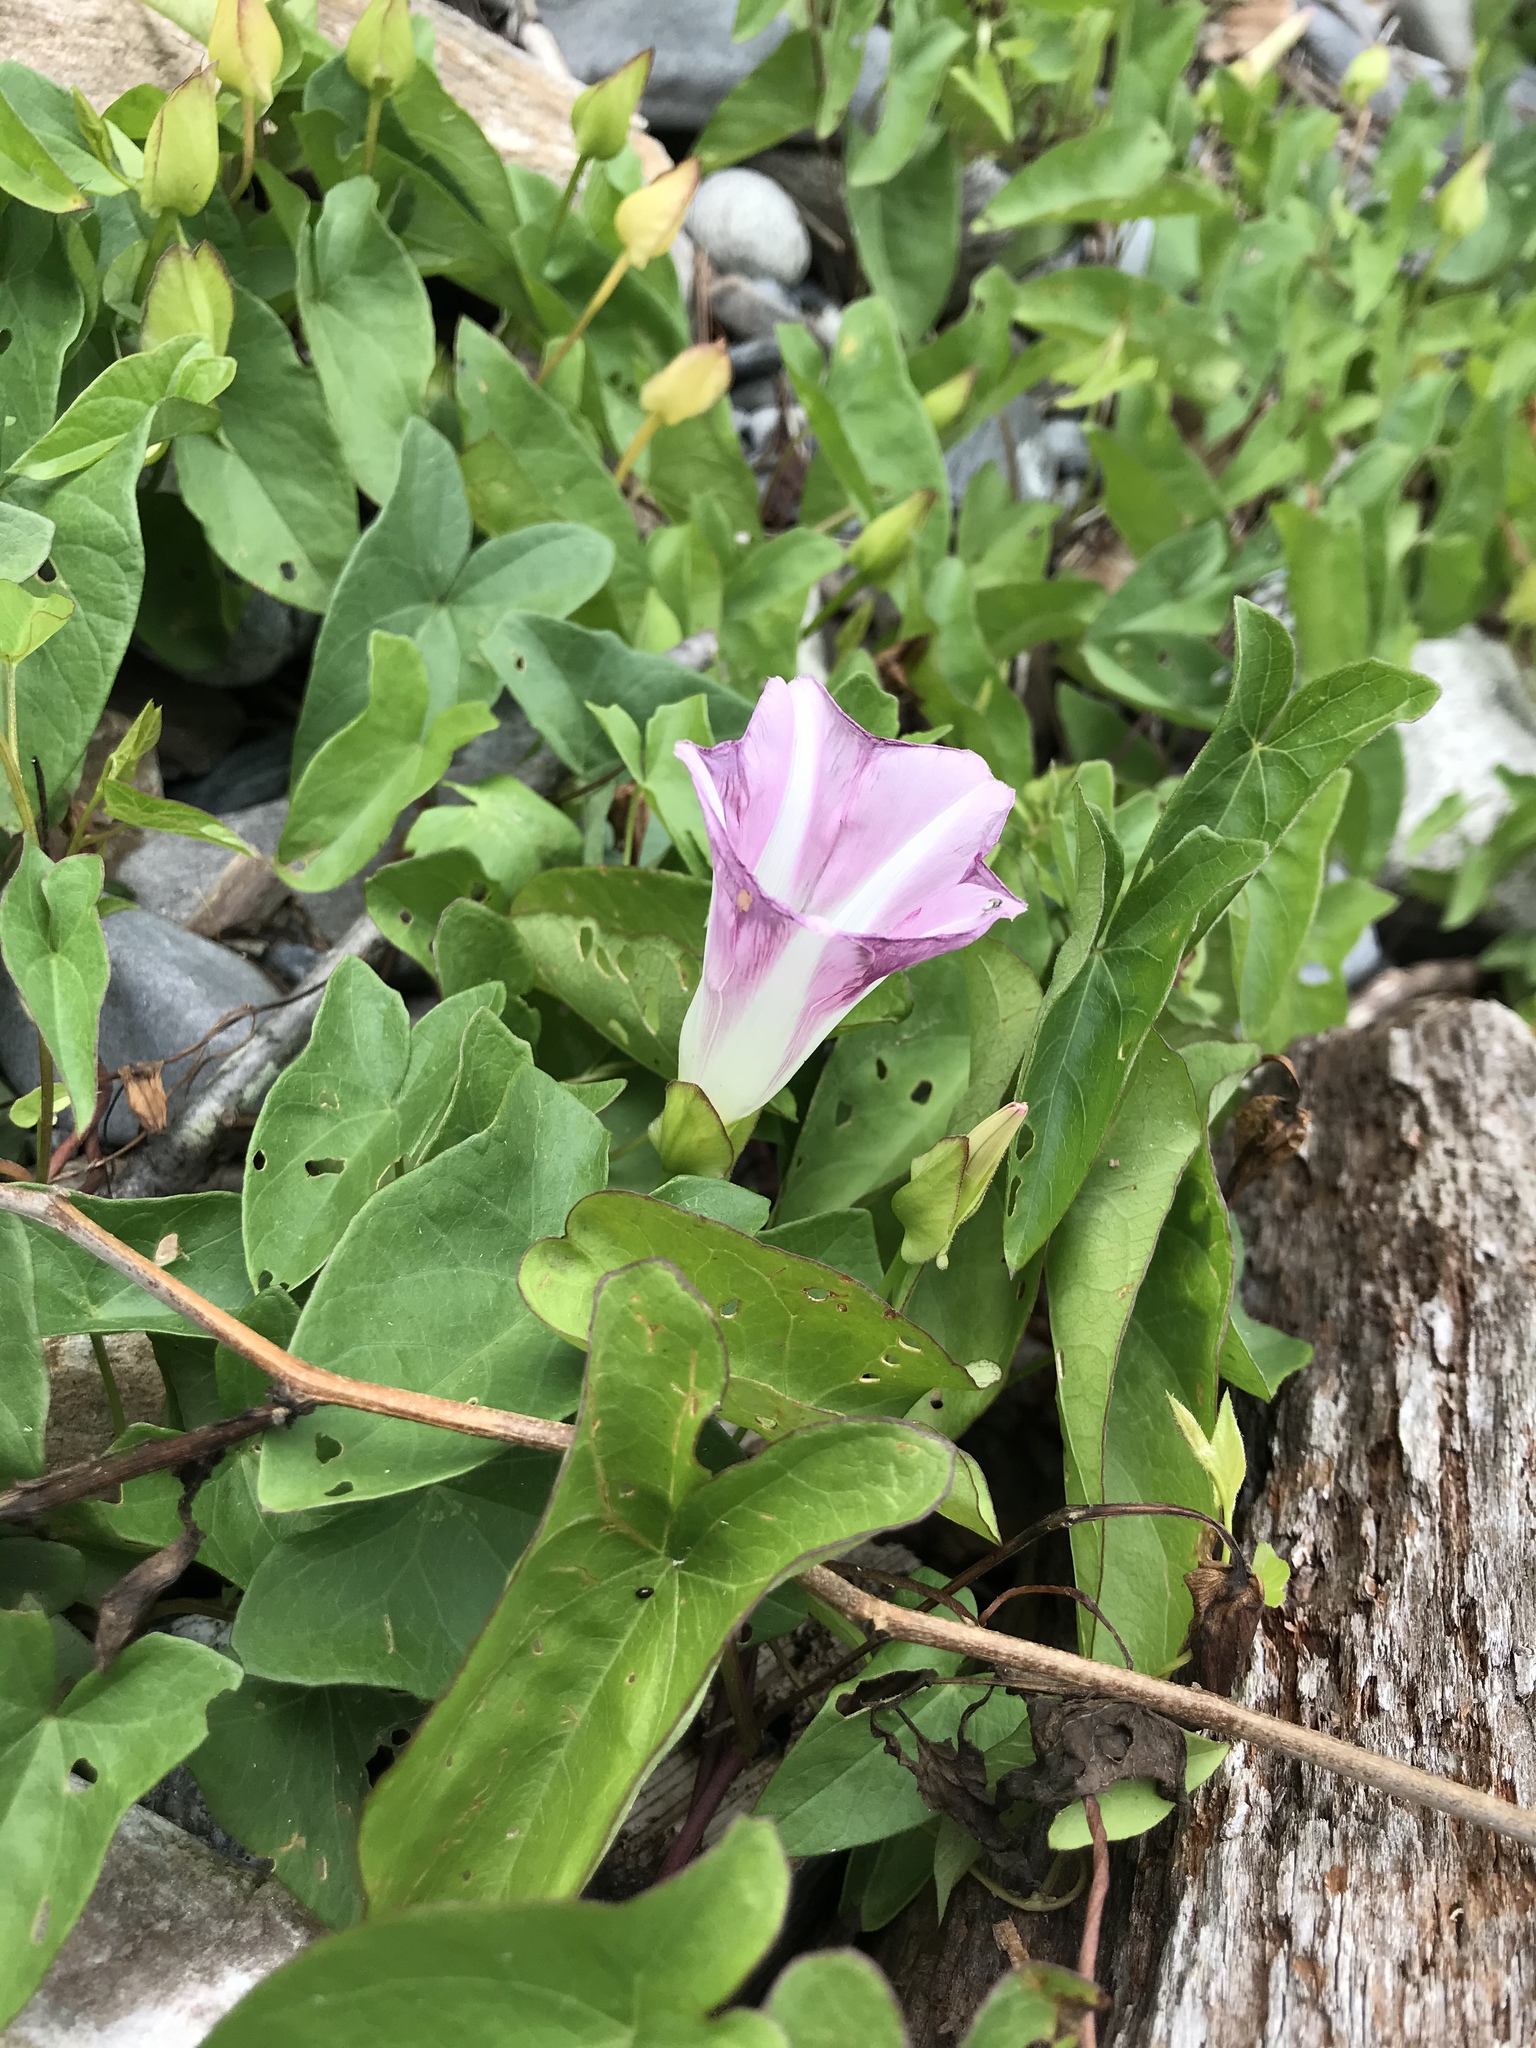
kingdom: Plantae
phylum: Tracheophyta
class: Magnoliopsida
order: Solanales
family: Convolvulaceae
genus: Calystegia
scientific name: Calystegia sepium
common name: Hedge bindweed
